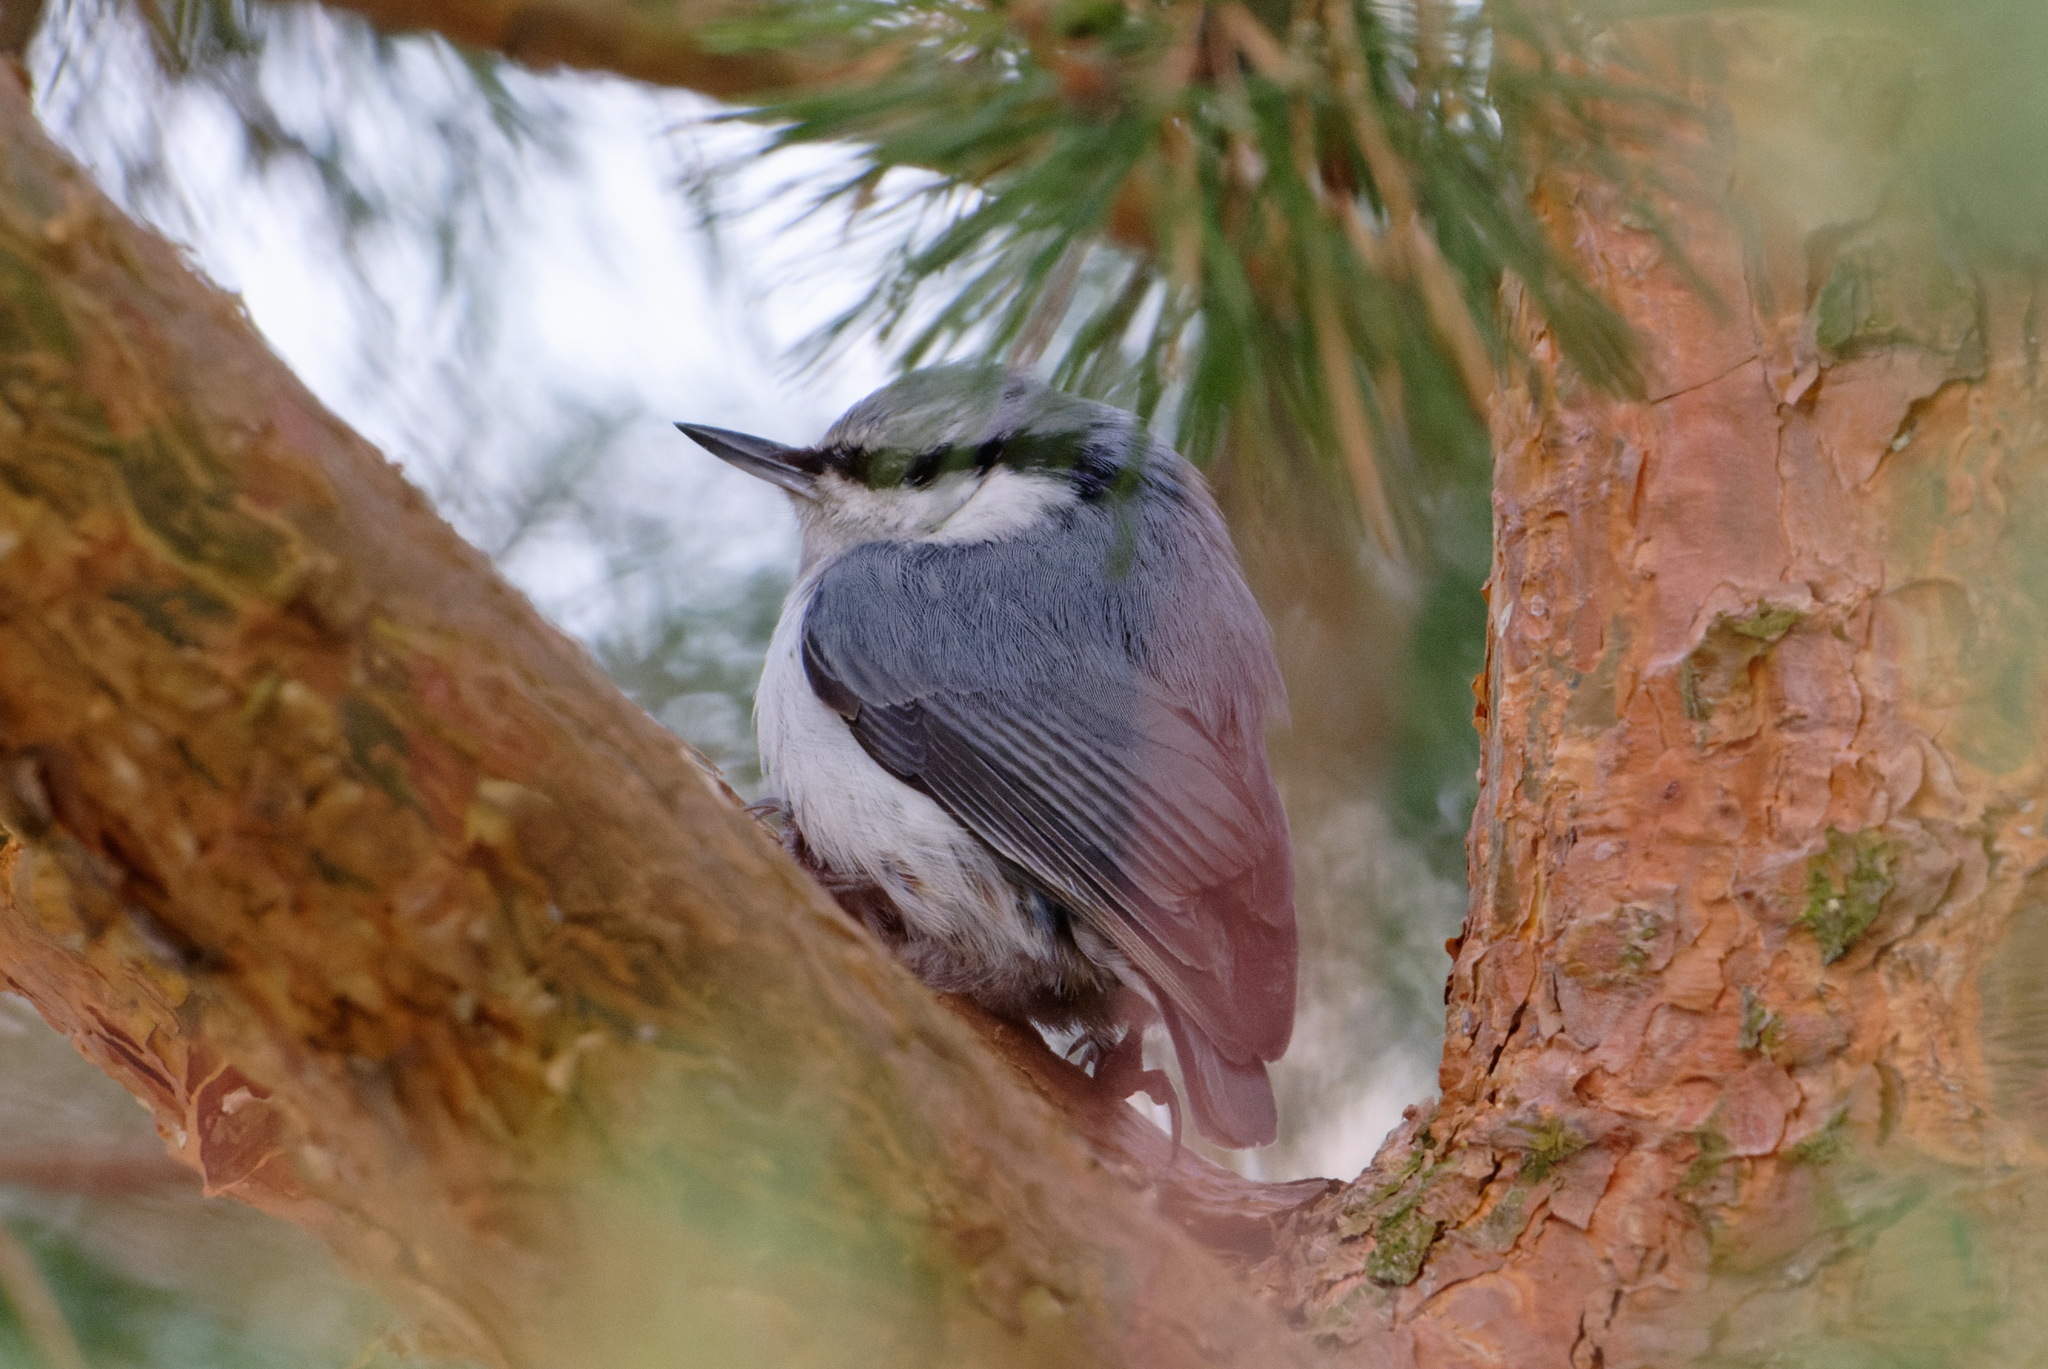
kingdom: Animalia
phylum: Chordata
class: Aves
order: Passeriformes
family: Sittidae
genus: Sitta
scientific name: Sitta europaea
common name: Eurasian nuthatch
